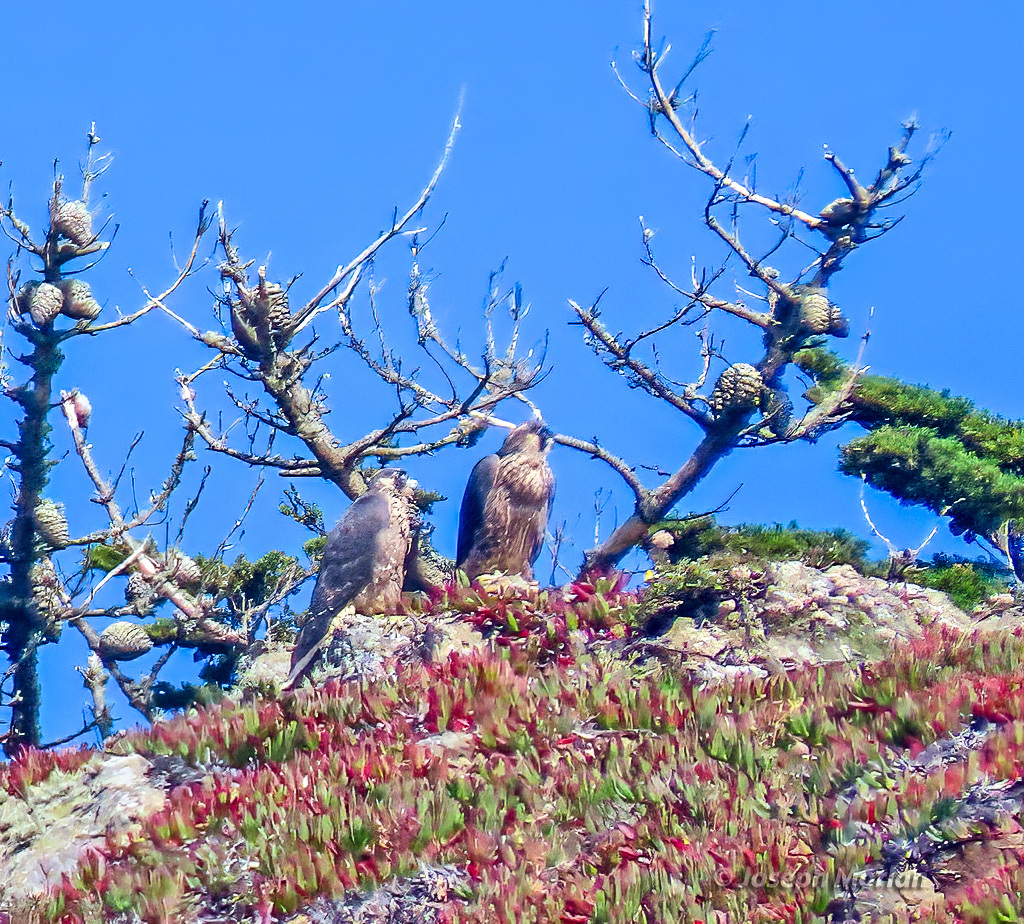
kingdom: Animalia
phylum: Chordata
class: Aves
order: Falconiformes
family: Falconidae
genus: Falco
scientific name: Falco peregrinus
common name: Peregrine falcon
